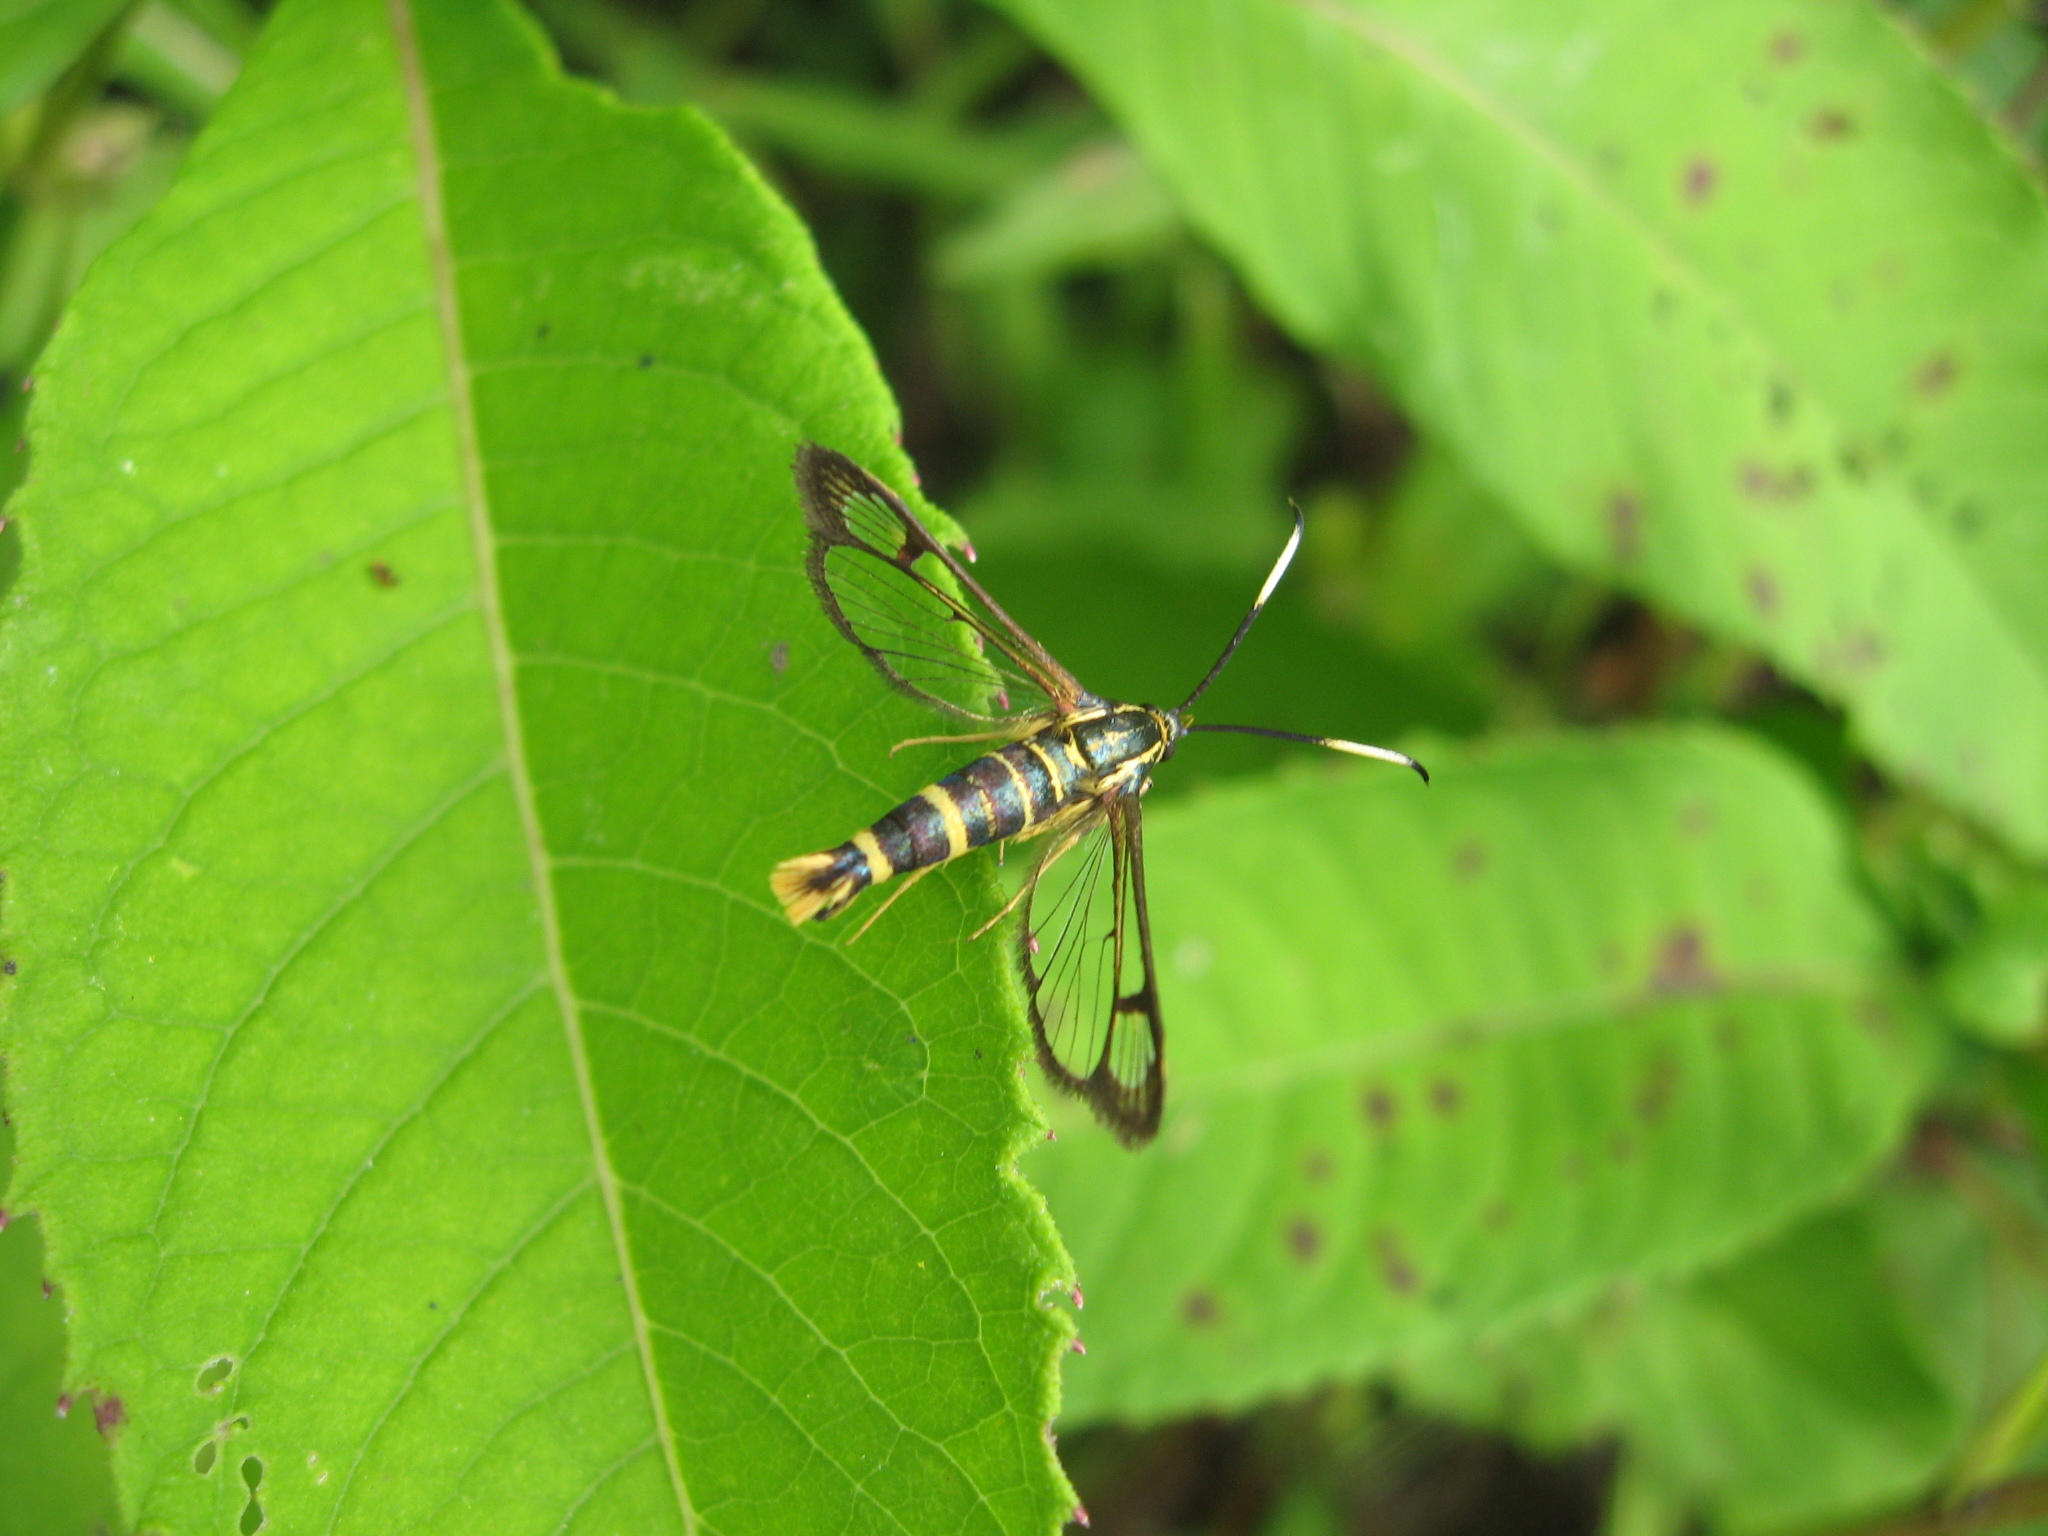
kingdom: Animalia
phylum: Arthropoda
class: Insecta
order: Lepidoptera
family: Sesiidae
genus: Carmenta
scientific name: Carmenta bassiformis
